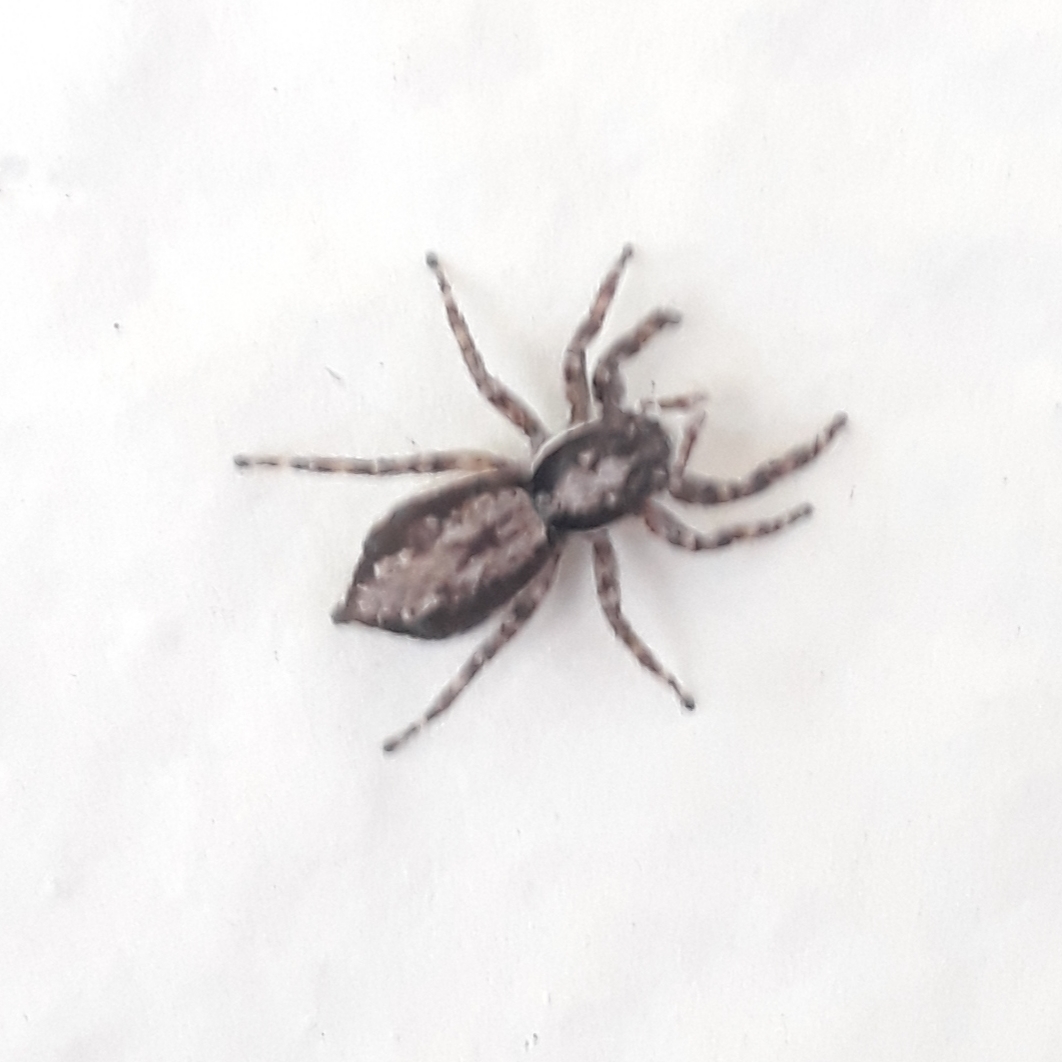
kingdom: Animalia
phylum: Arthropoda
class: Arachnida
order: Araneae
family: Salticidae
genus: Menemerus
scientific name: Menemerus bivittatus
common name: Gray wall jumper
